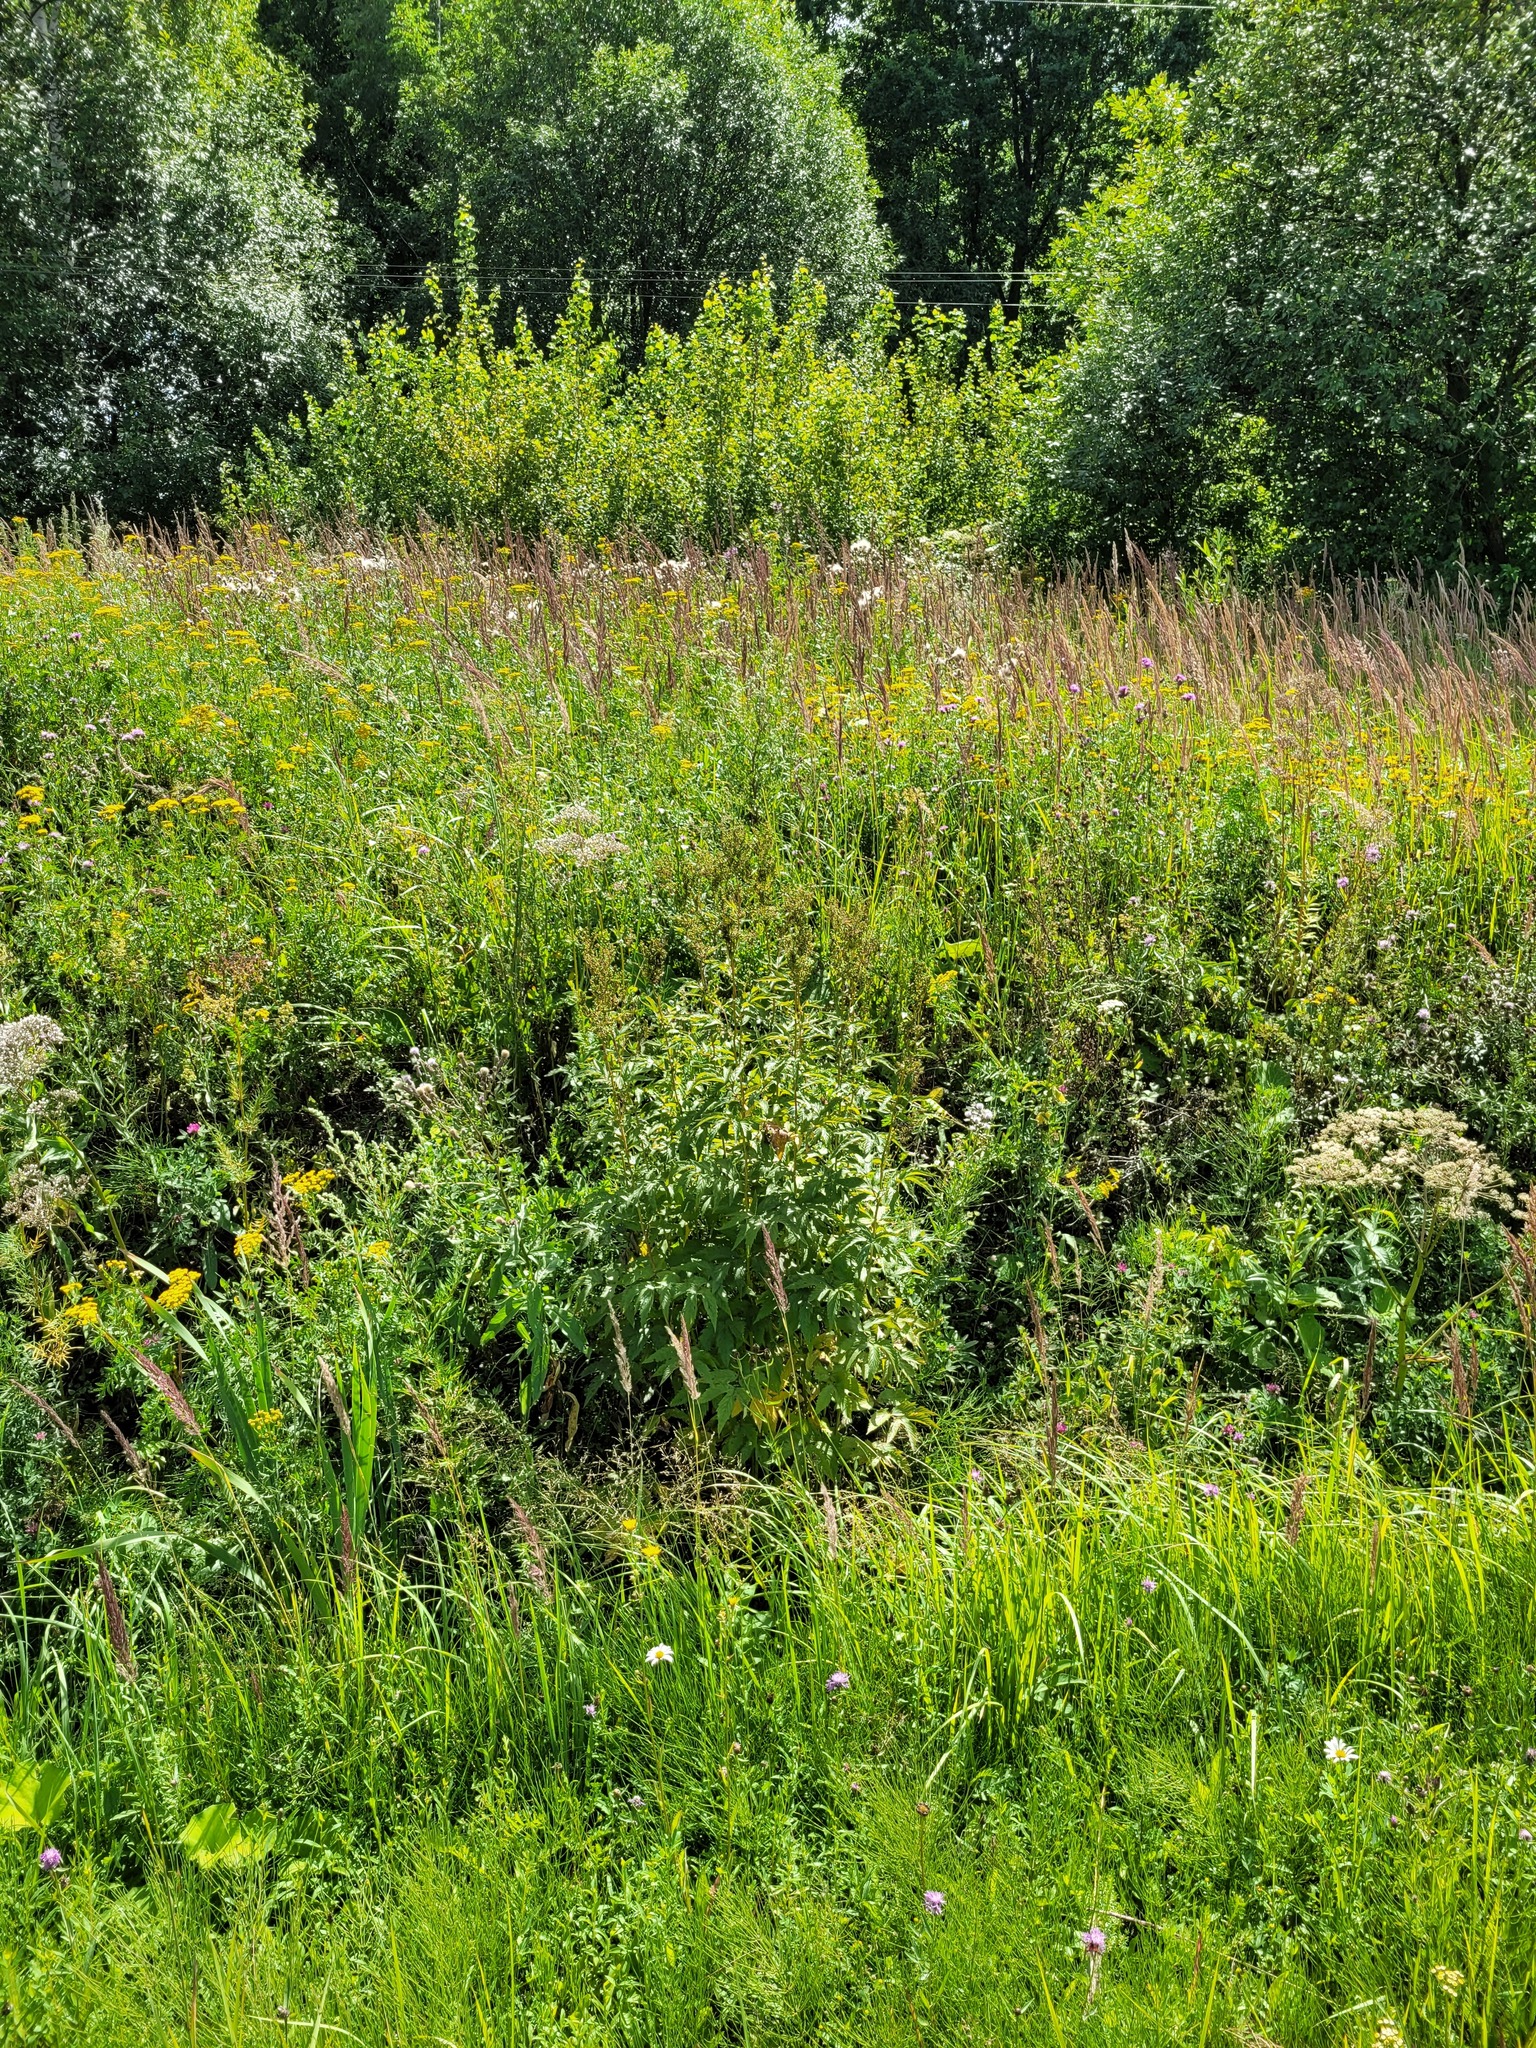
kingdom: Plantae
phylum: Tracheophyta
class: Magnoliopsida
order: Rosales
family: Rosaceae
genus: Filipendula
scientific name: Filipendula ulmaria
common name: Meadowsweet
